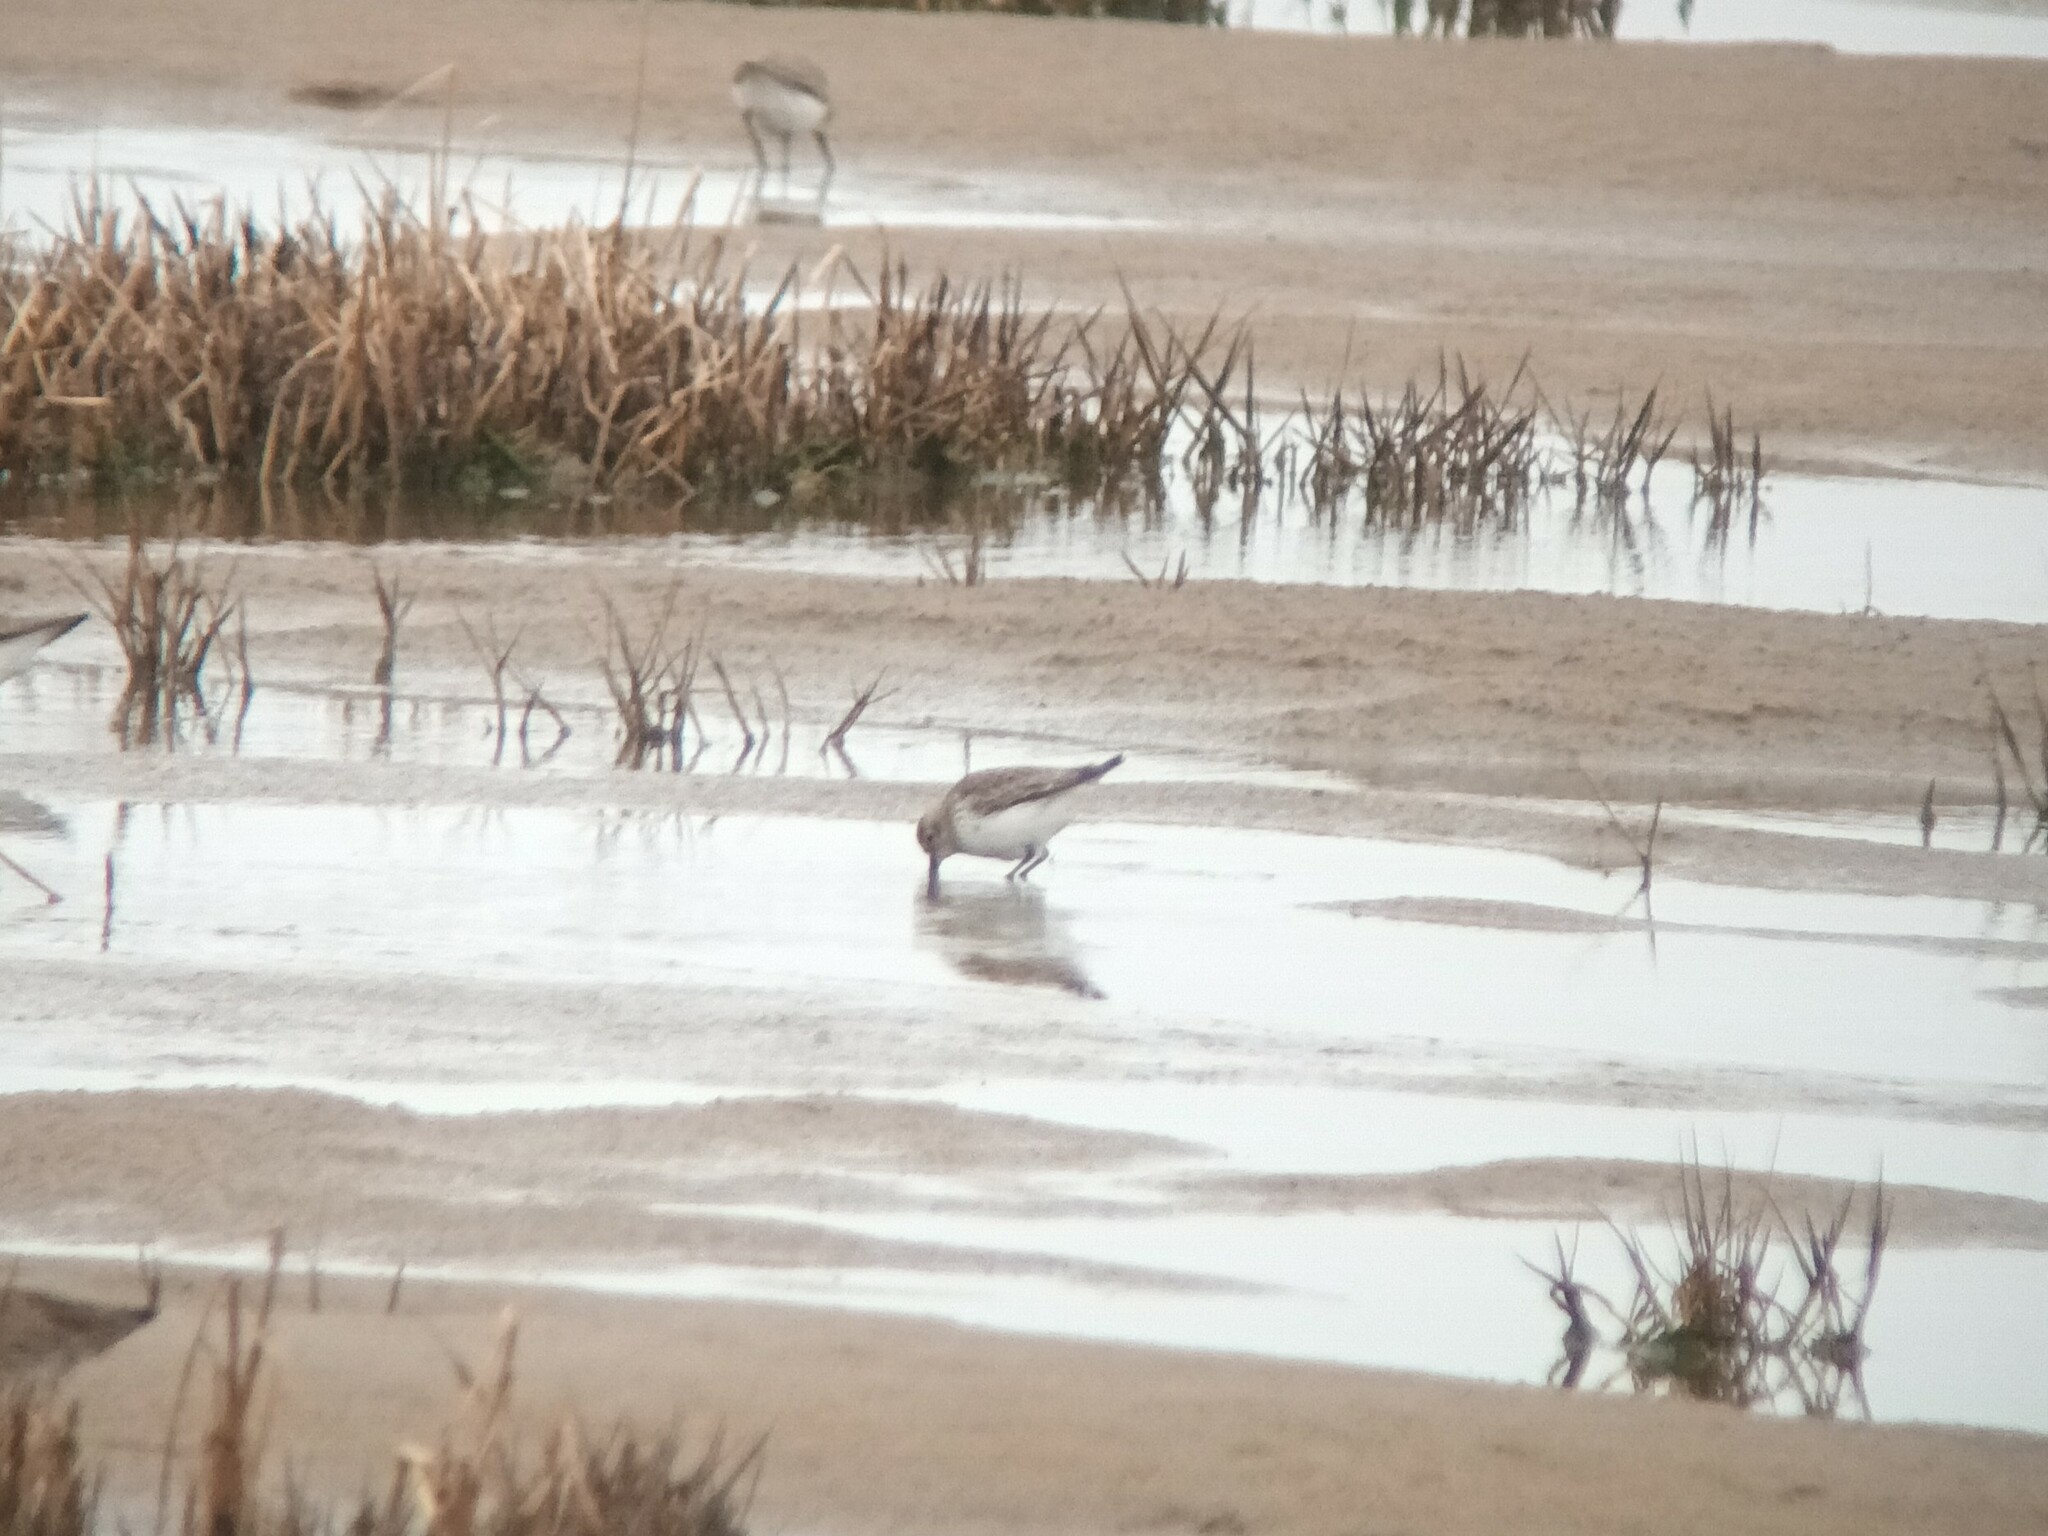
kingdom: Animalia
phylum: Chordata
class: Aves
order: Charadriiformes
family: Scolopacidae
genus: Calidris
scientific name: Calidris alpina
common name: Dunlin
